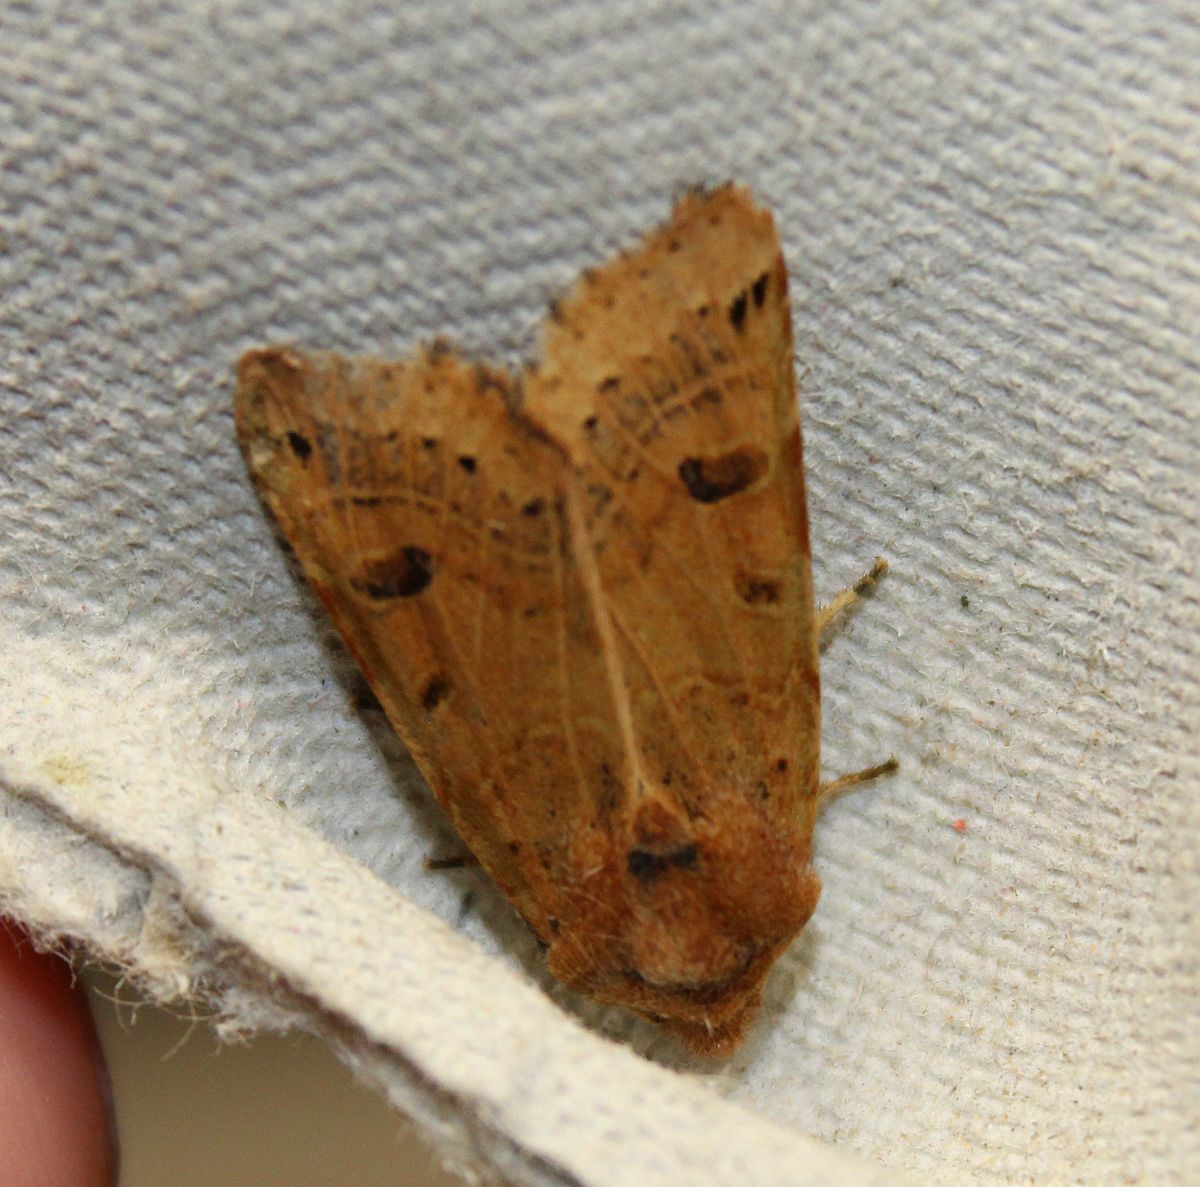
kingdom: Animalia
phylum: Arthropoda
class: Insecta
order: Lepidoptera
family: Noctuidae
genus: Agrochola
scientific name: Agrochola lunosa
